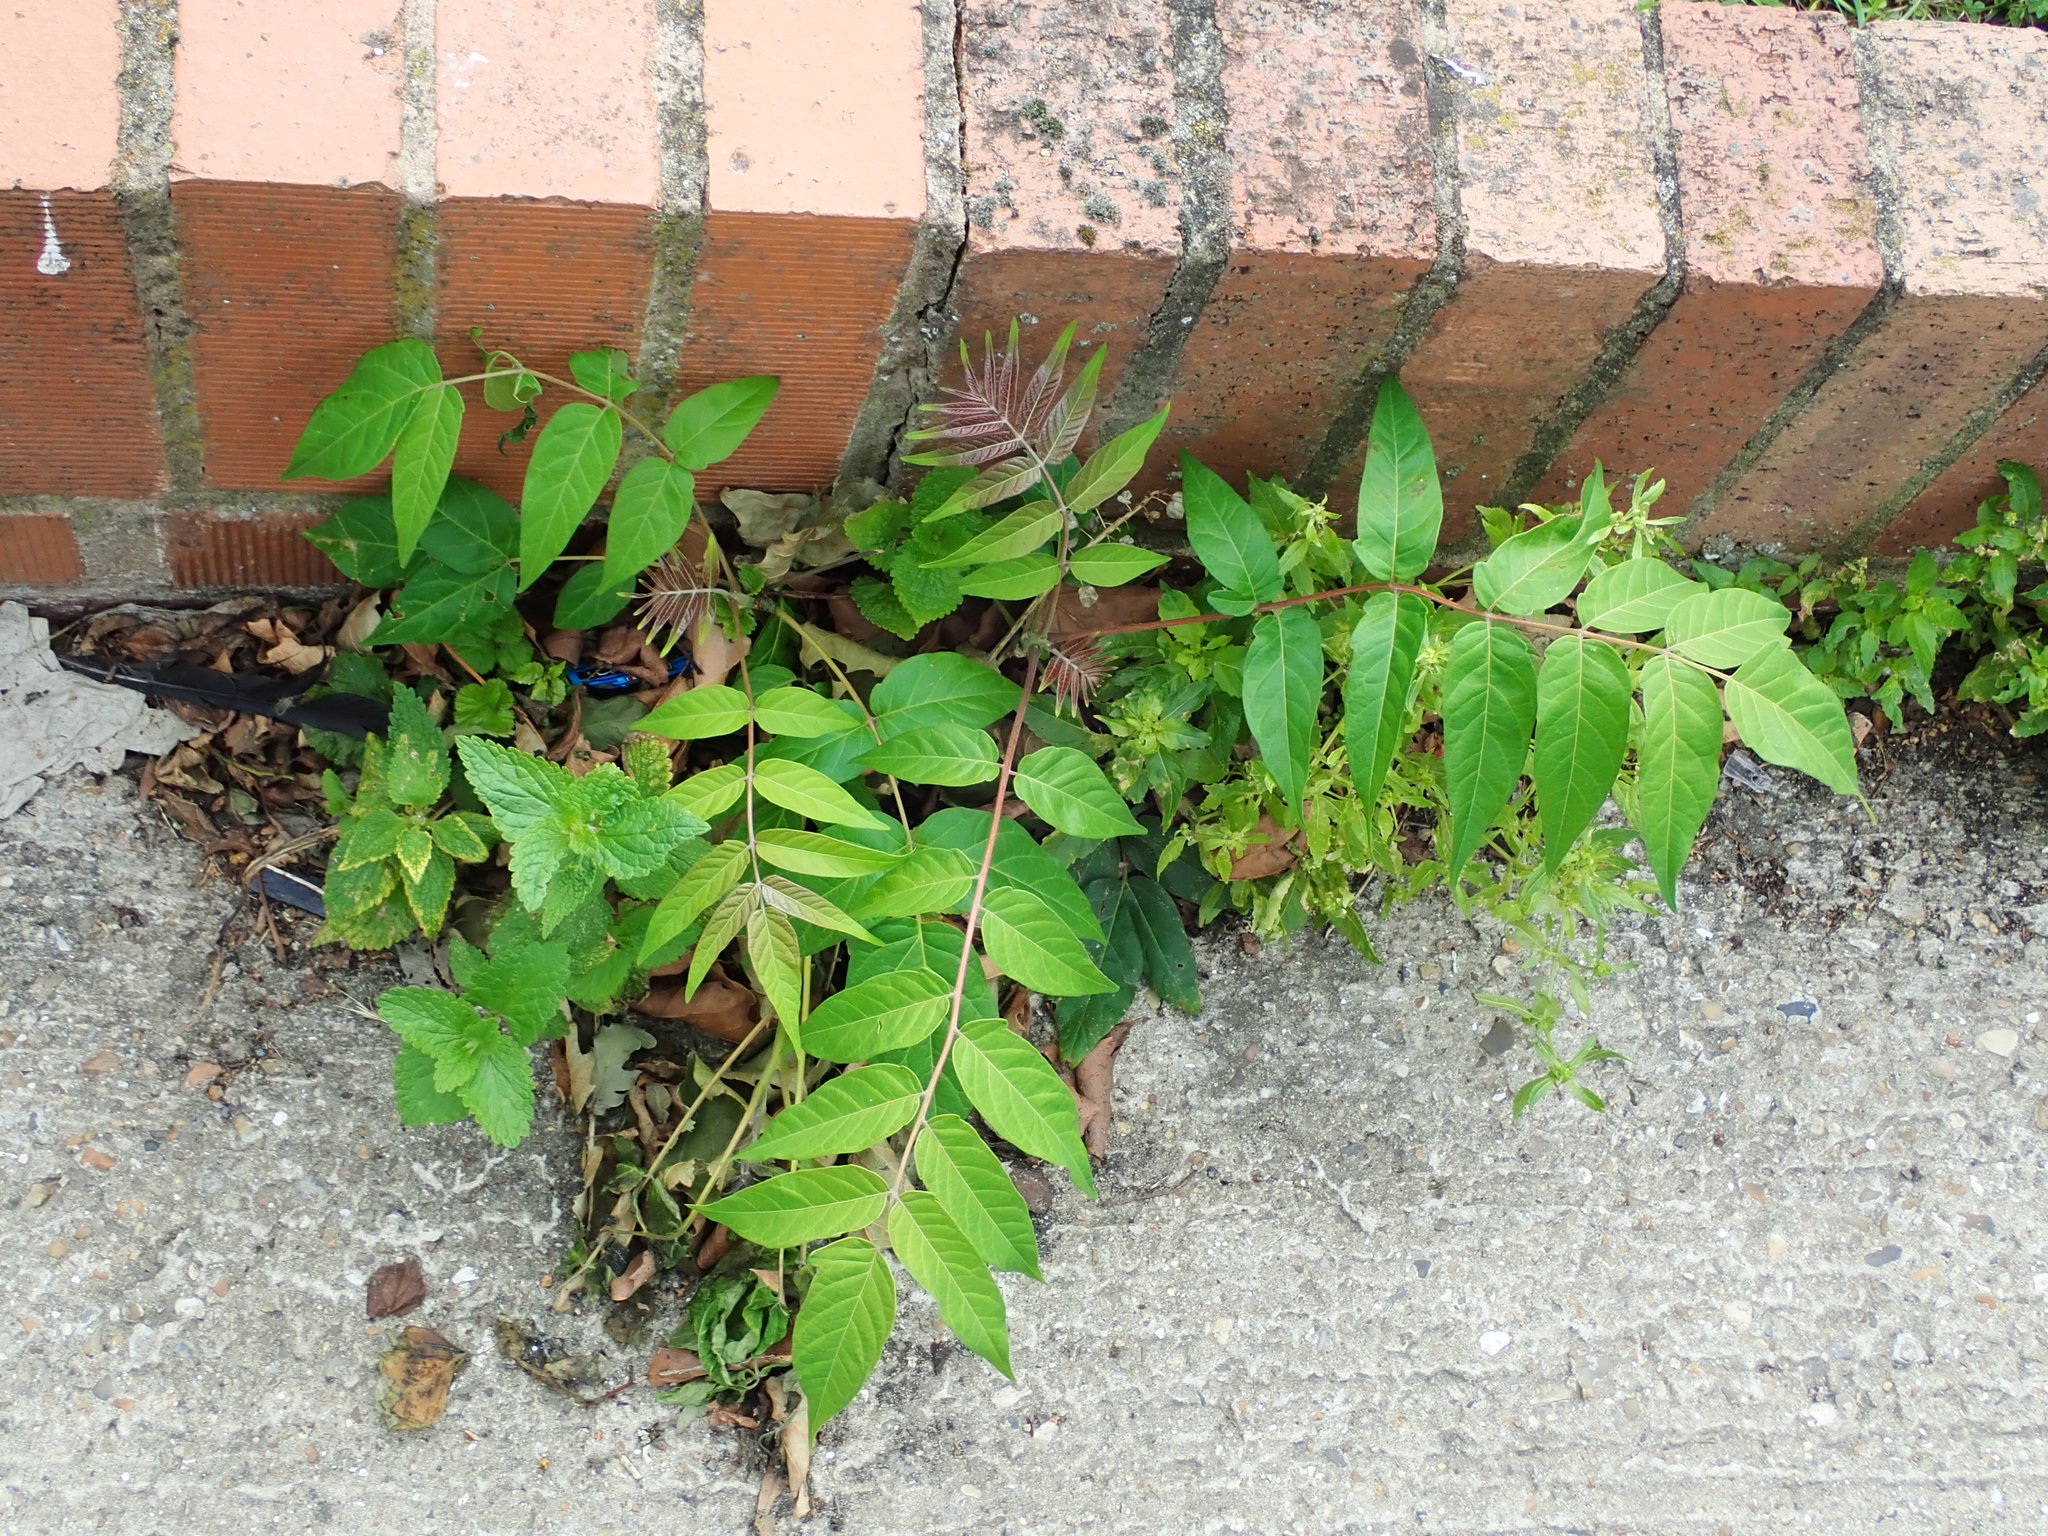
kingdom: Plantae
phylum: Tracheophyta
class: Magnoliopsida
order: Sapindales
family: Simaroubaceae
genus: Ailanthus
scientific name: Ailanthus altissima
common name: Tree-of-heaven
